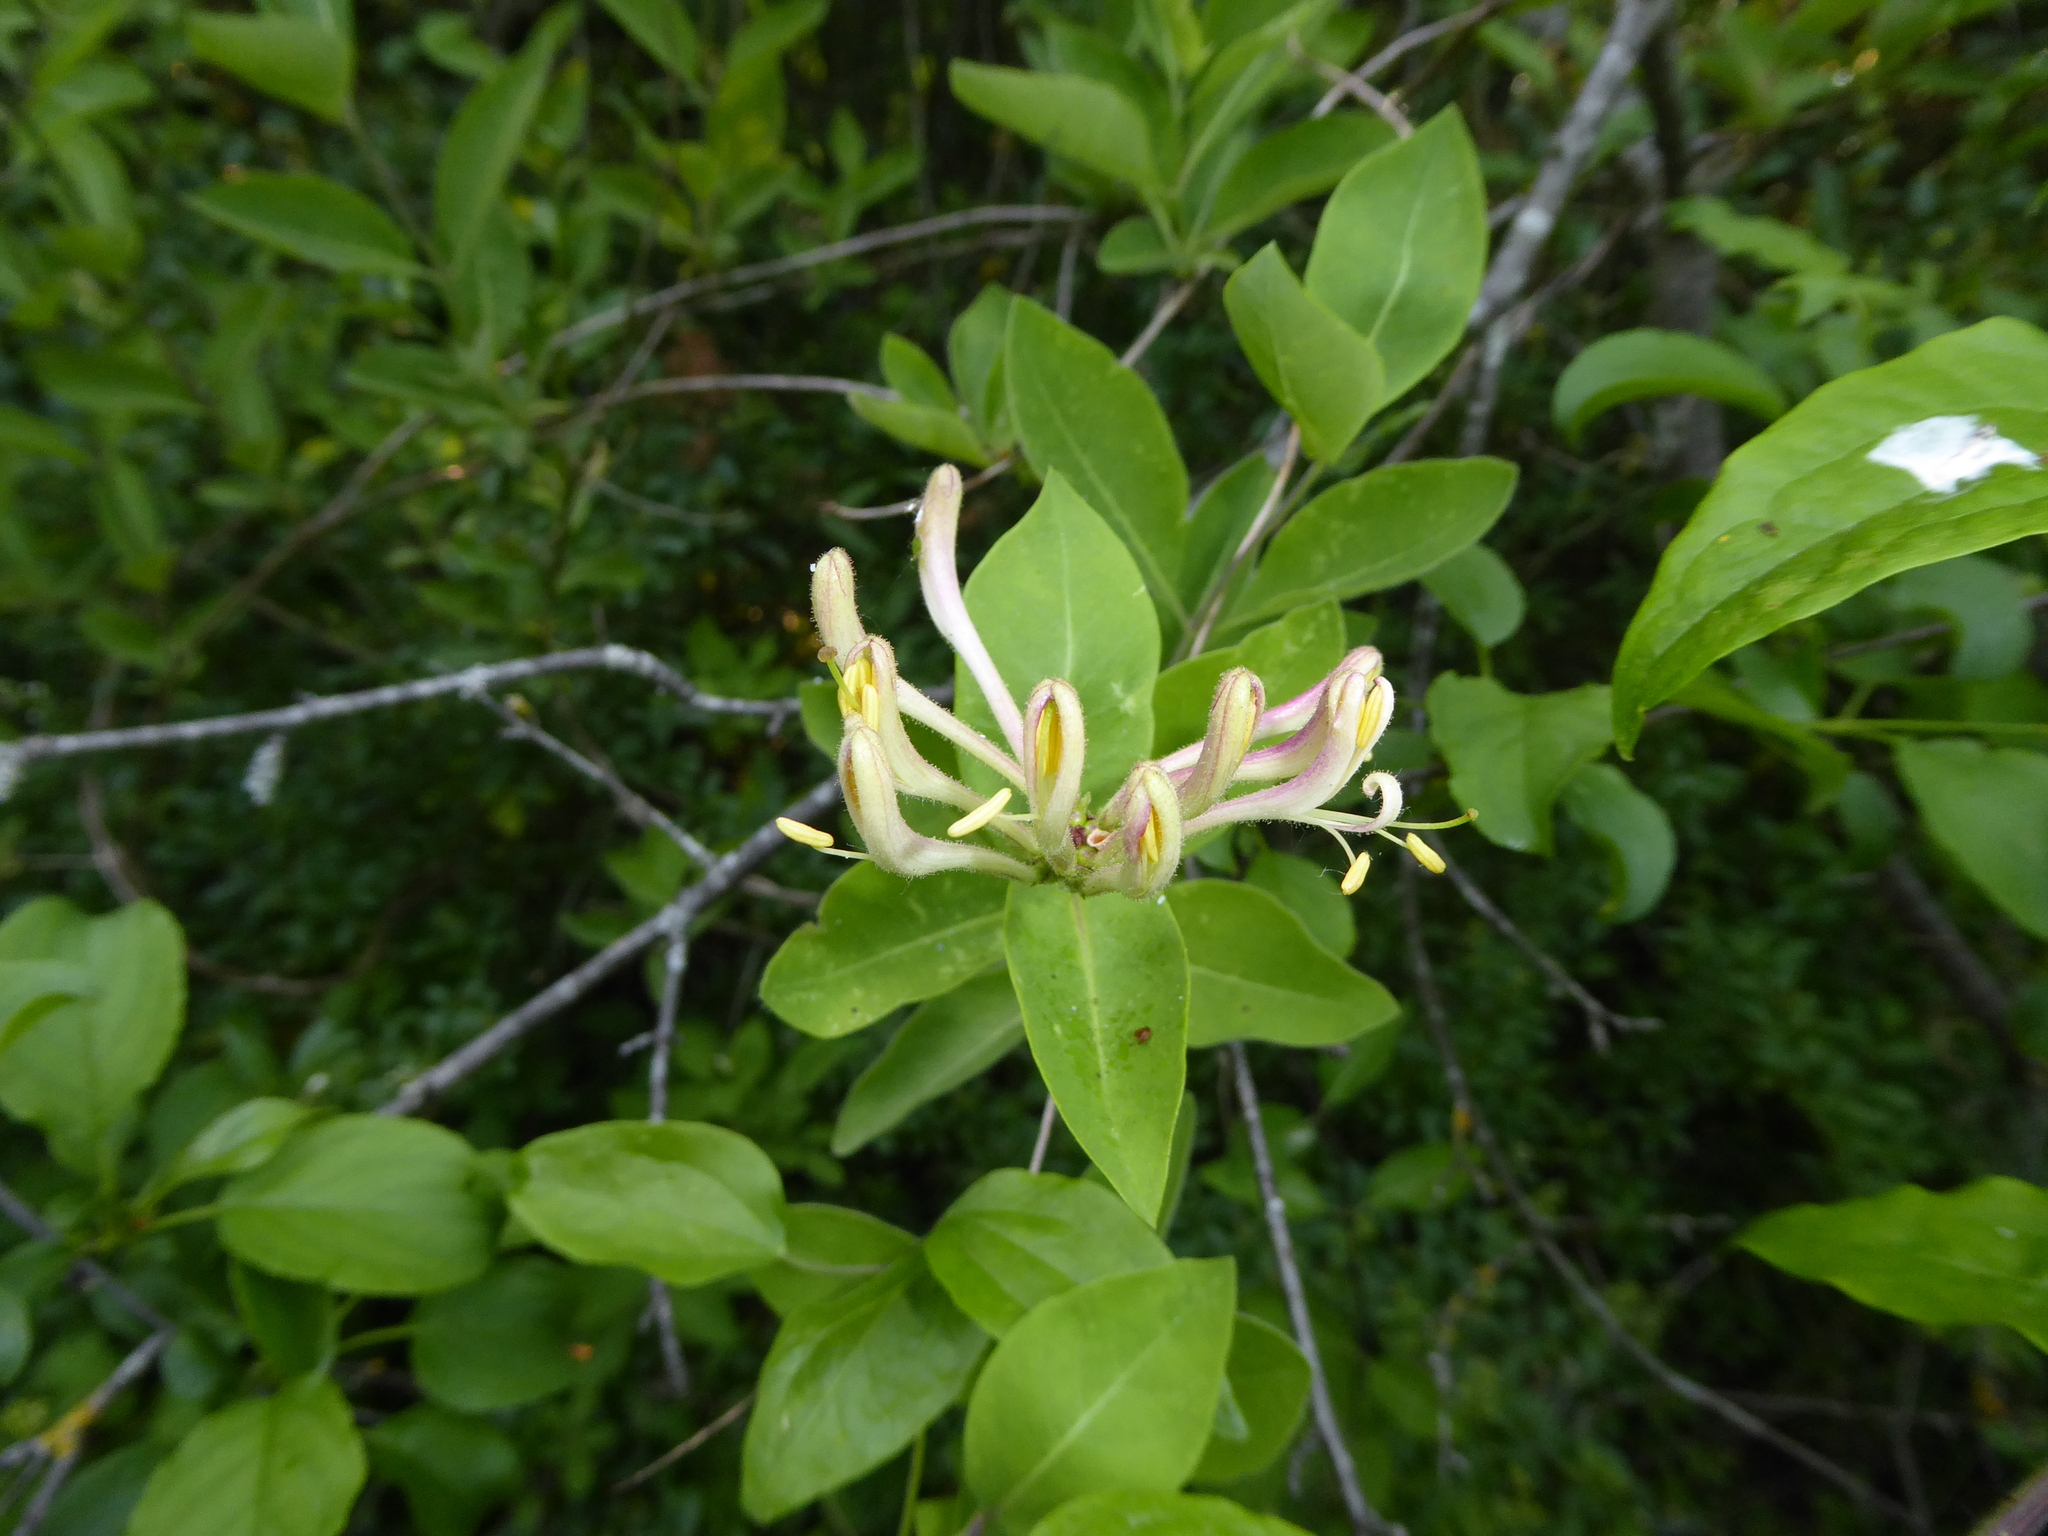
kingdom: Plantae
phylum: Tracheophyta
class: Magnoliopsida
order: Dipsacales
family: Caprifoliaceae
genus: Lonicera
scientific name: Lonicera periclymenum
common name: European honeysuckle
